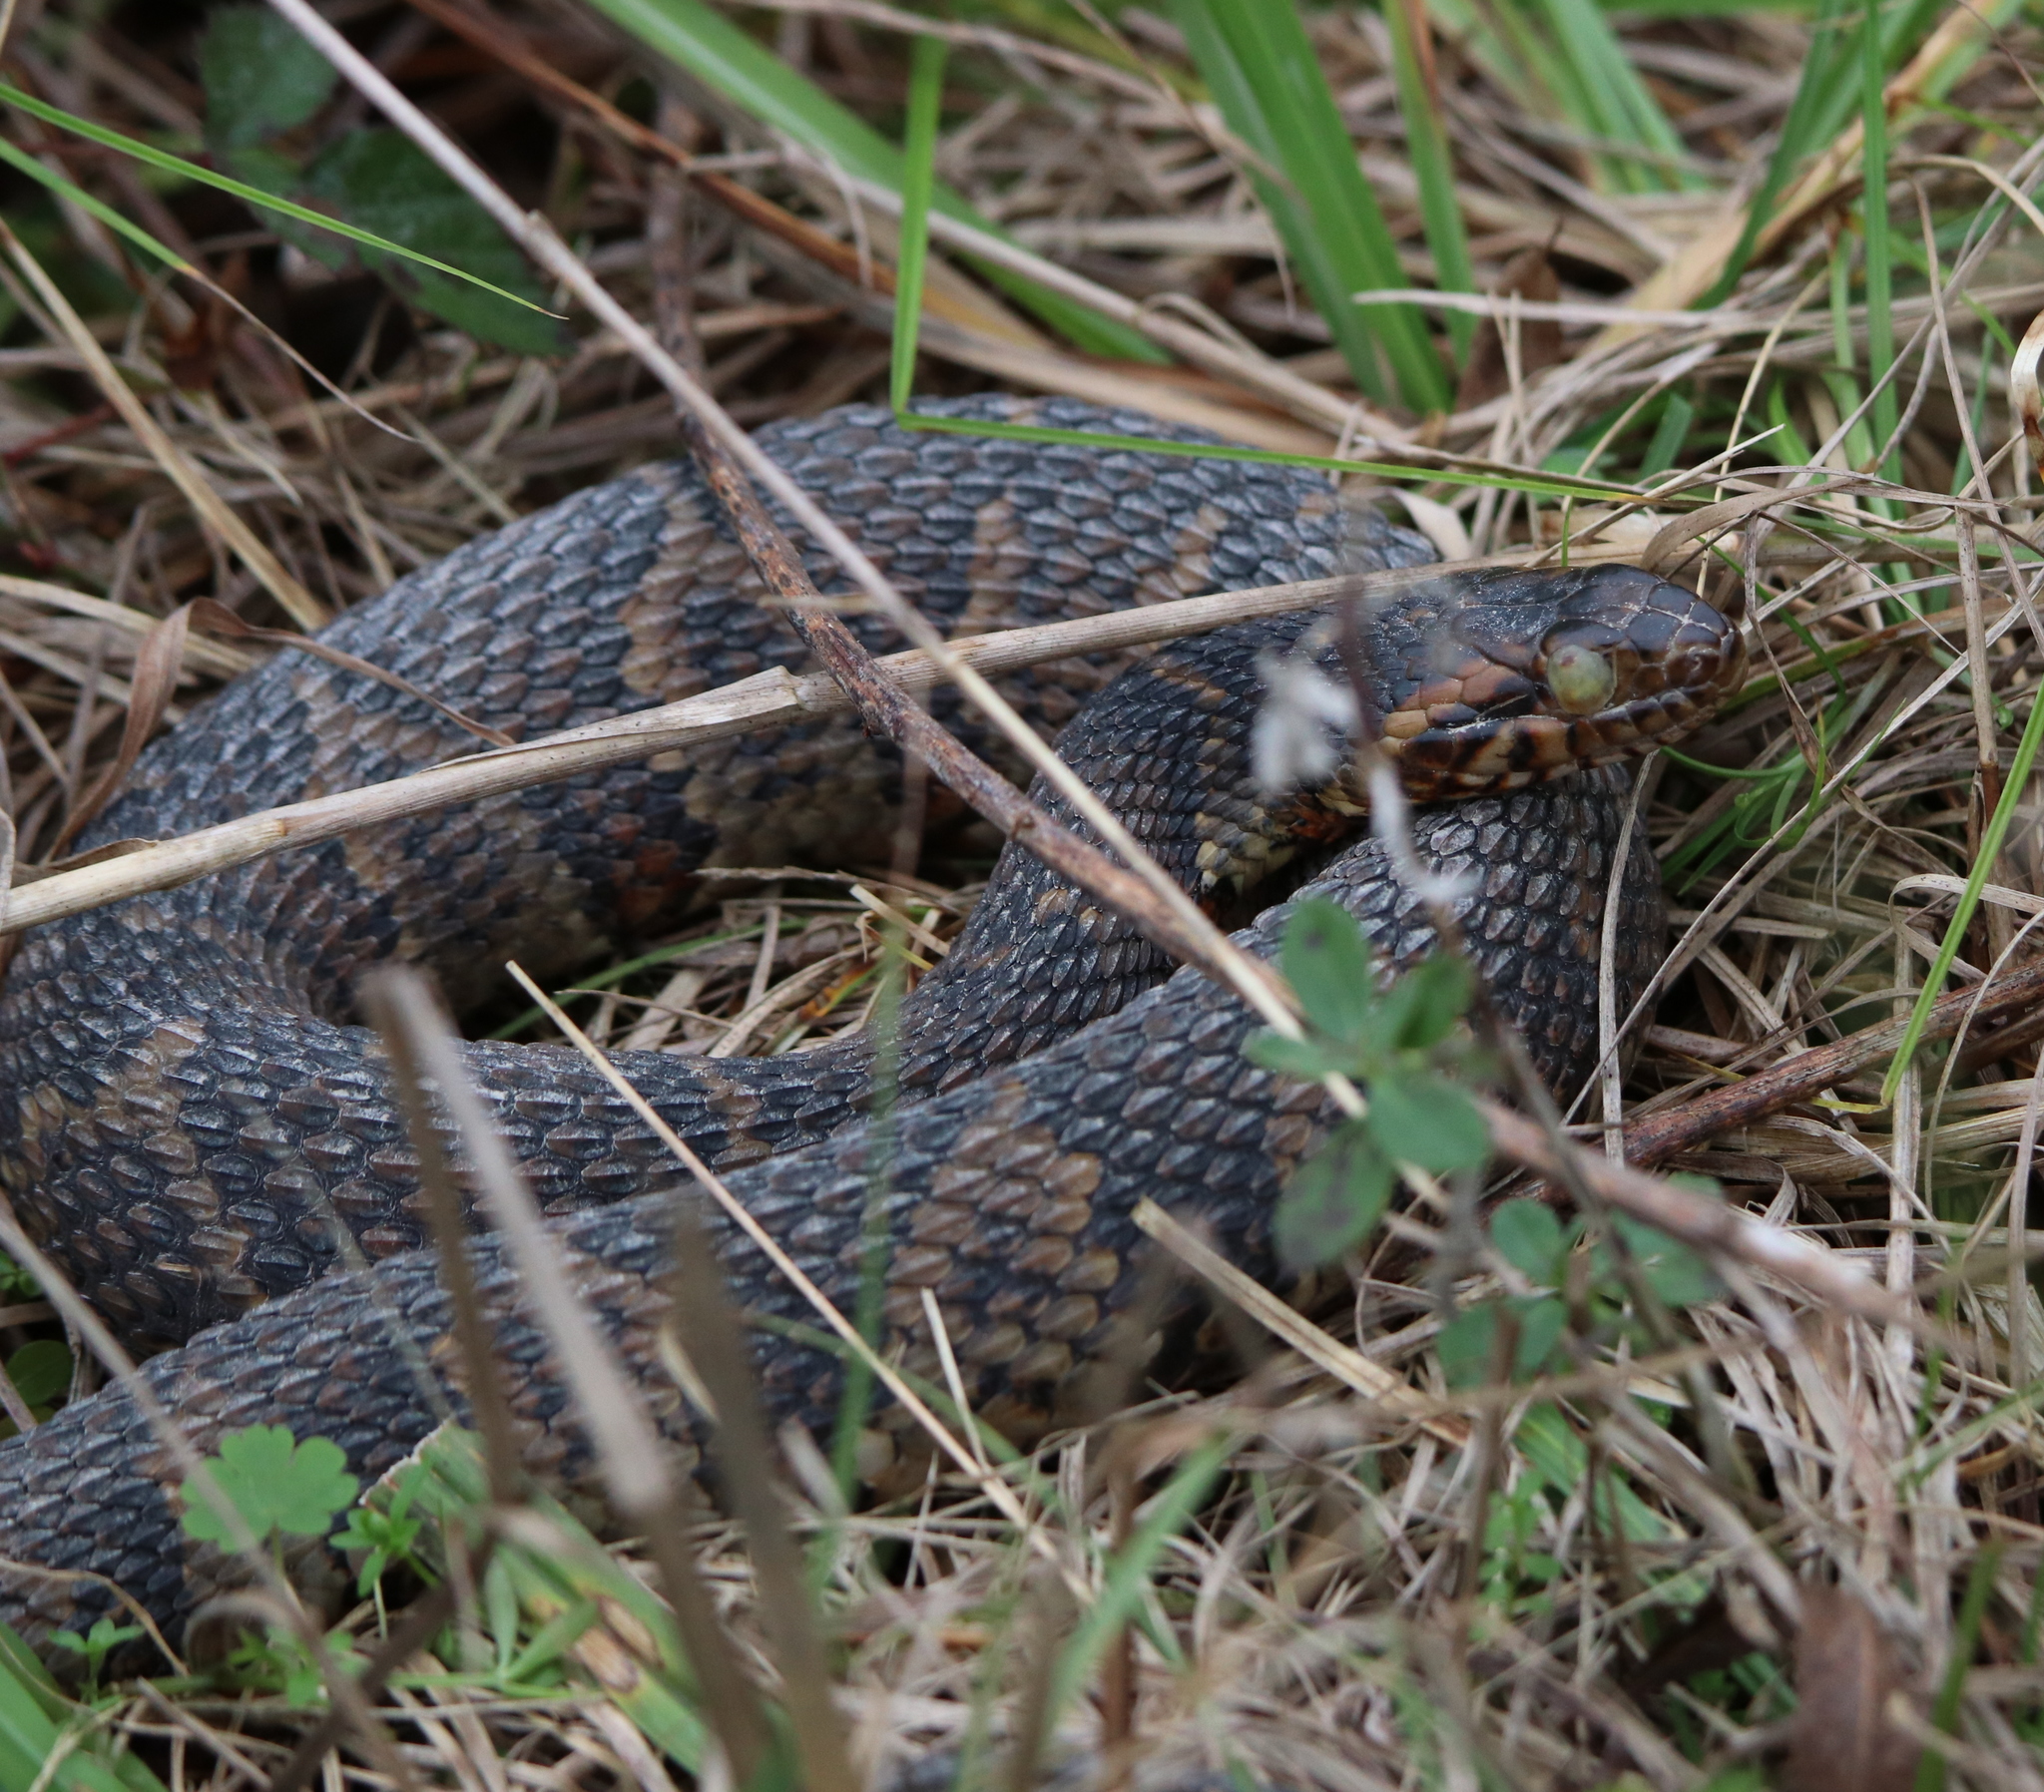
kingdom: Animalia
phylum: Chordata
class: Squamata
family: Colubridae
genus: Nerodia
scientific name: Nerodia fasciata
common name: Southern water snake
